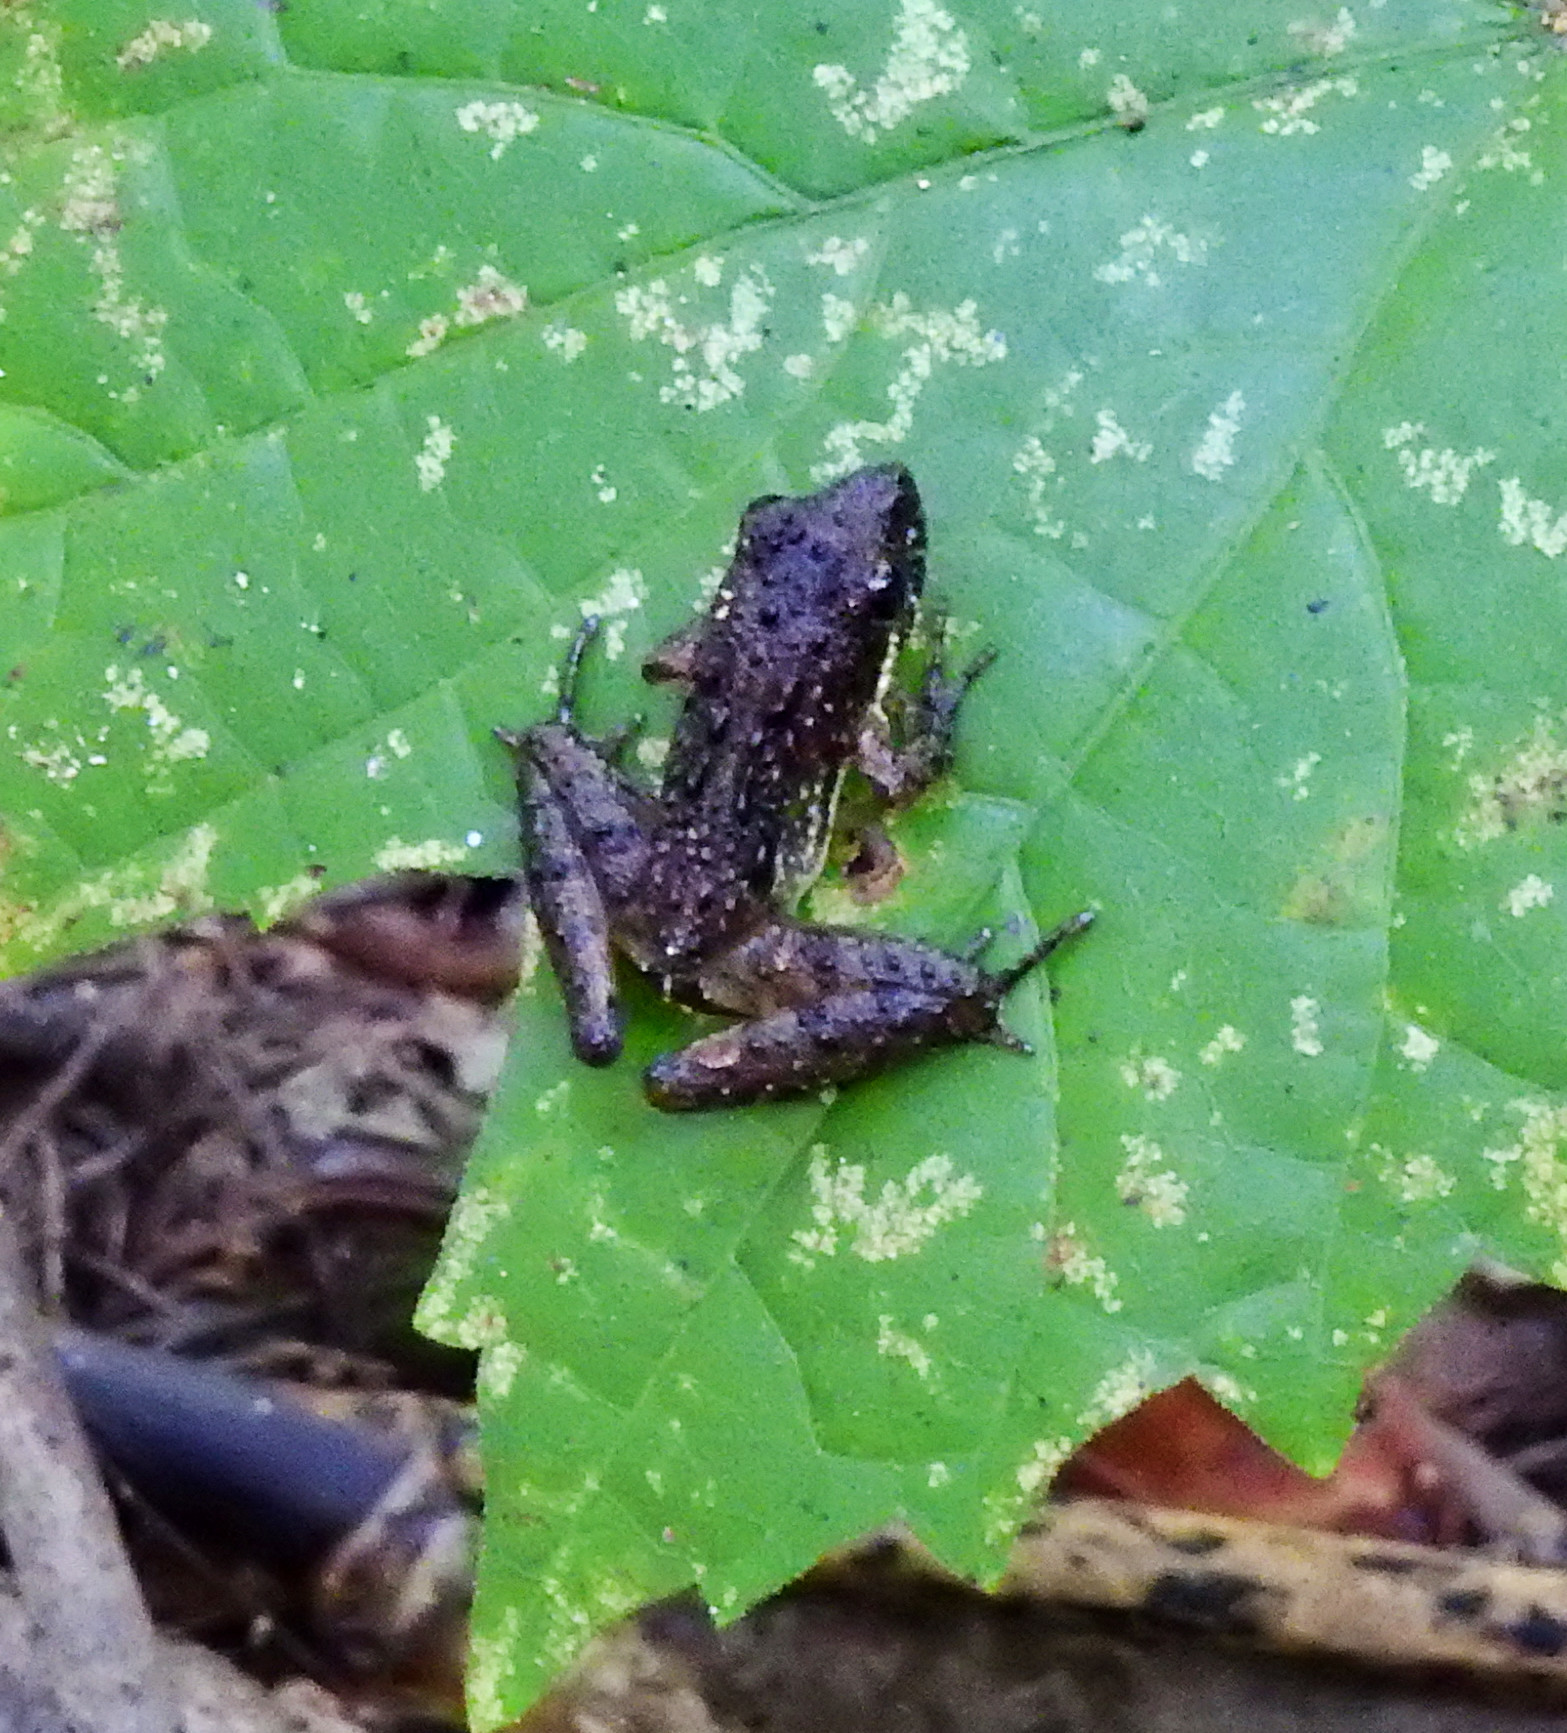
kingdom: Animalia
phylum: Chordata
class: Amphibia
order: Anura
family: Hylidae
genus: Acris
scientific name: Acris gryllus
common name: Southern cricket frog
